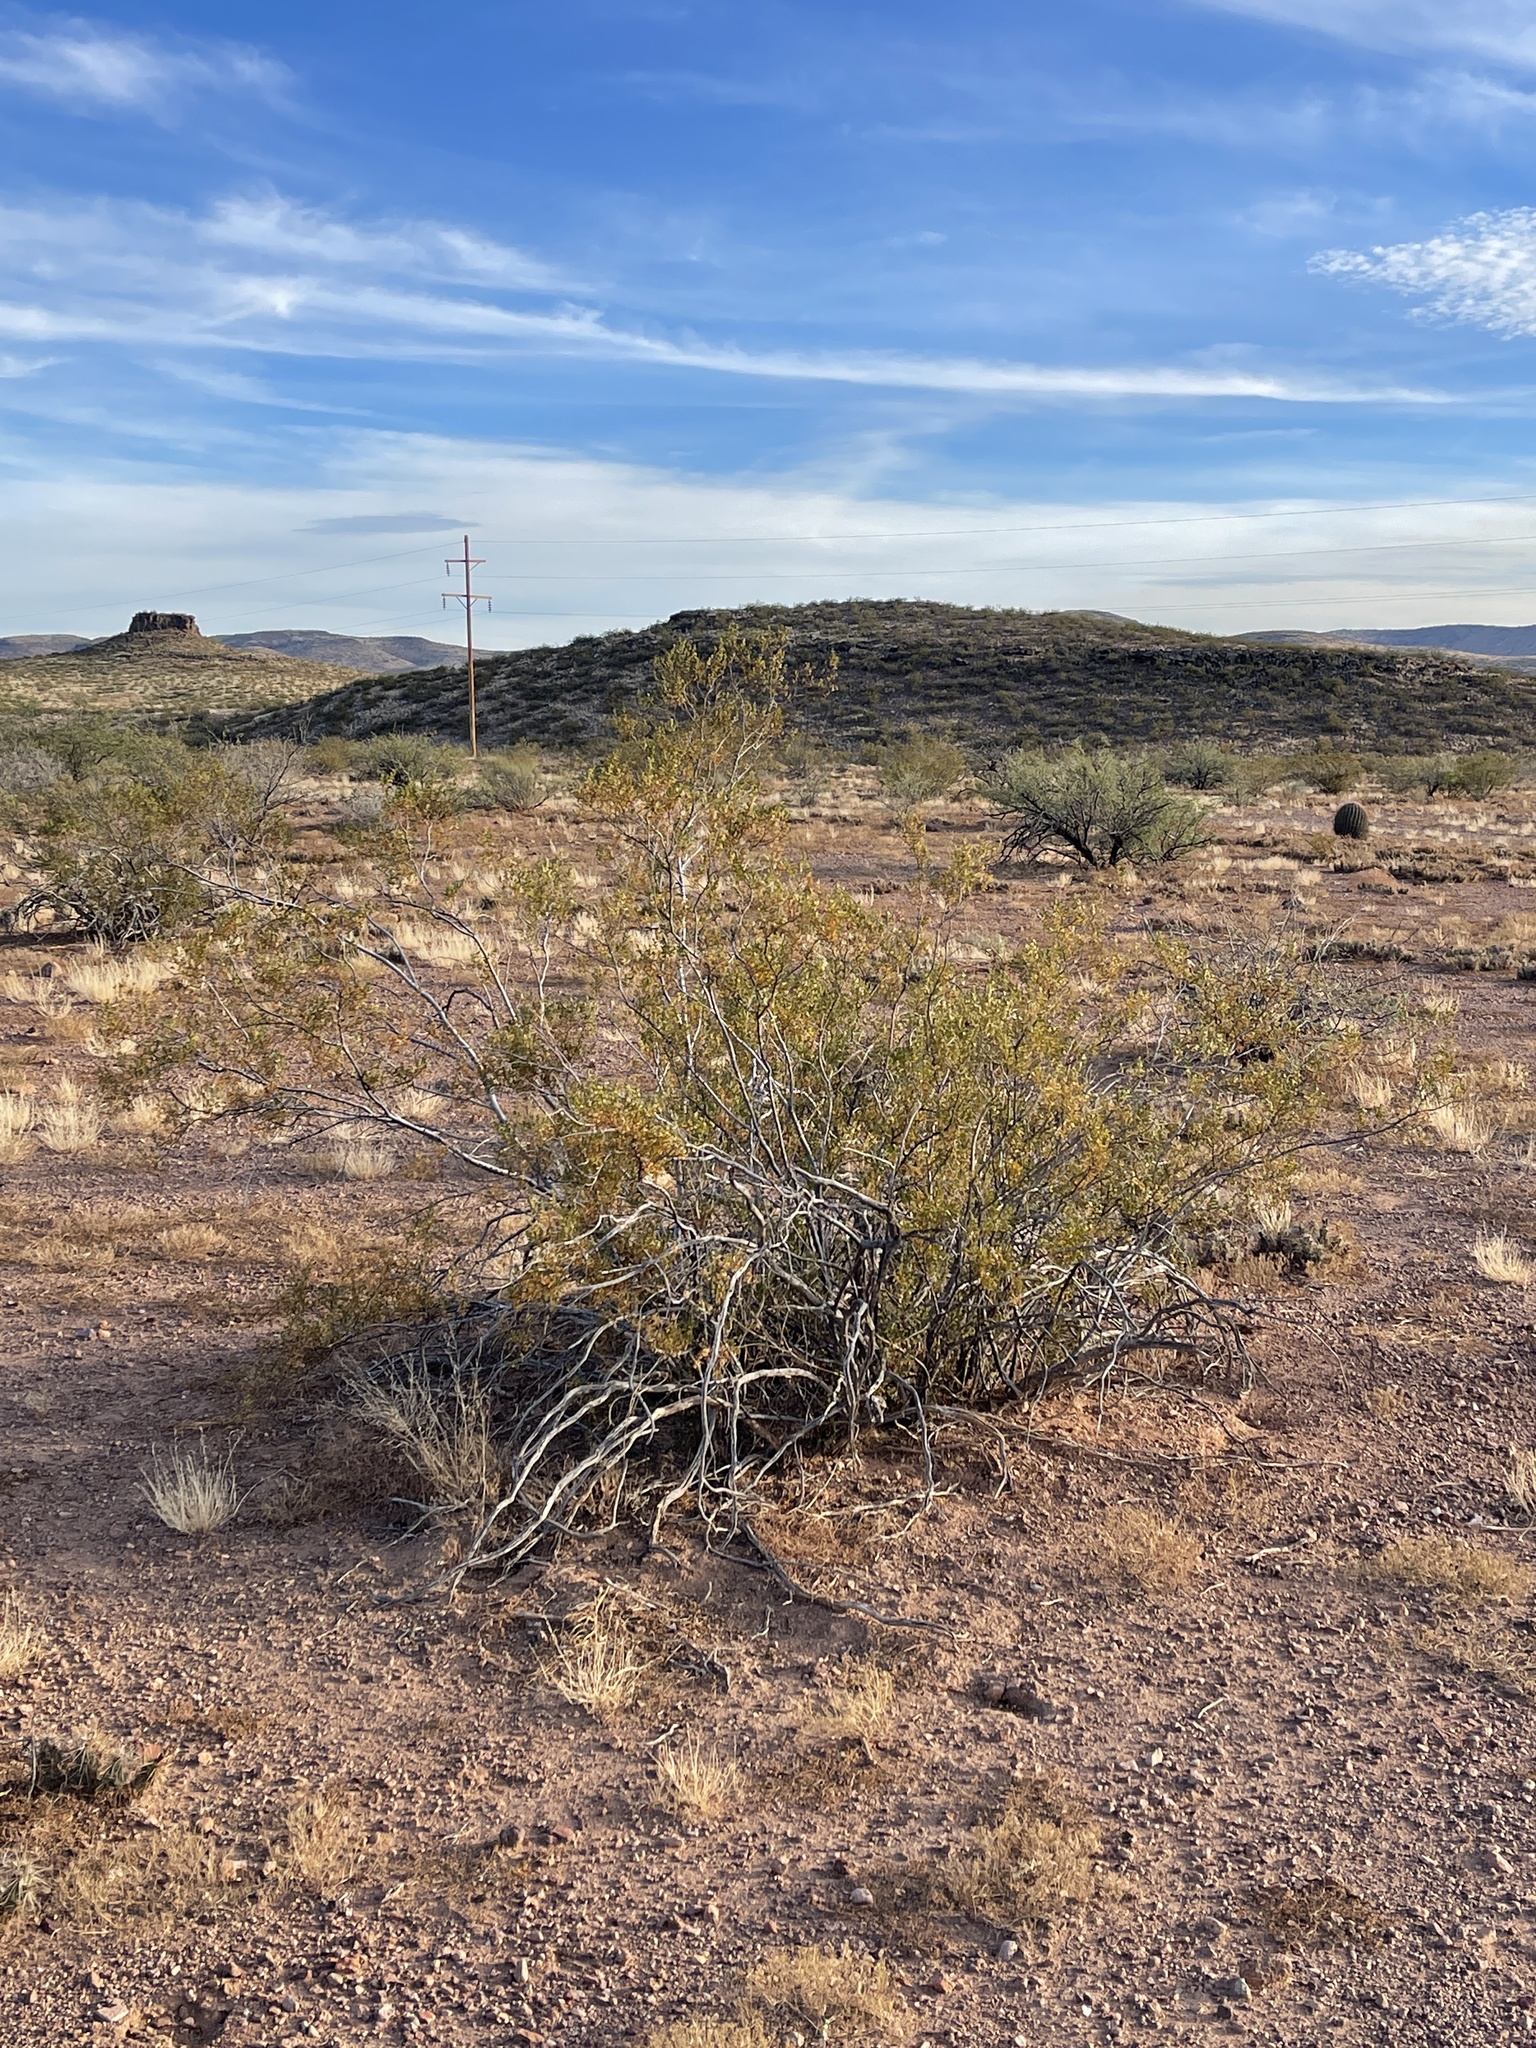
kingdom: Plantae
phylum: Tracheophyta
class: Magnoliopsida
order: Zygophyllales
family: Zygophyllaceae
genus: Larrea
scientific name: Larrea tridentata
